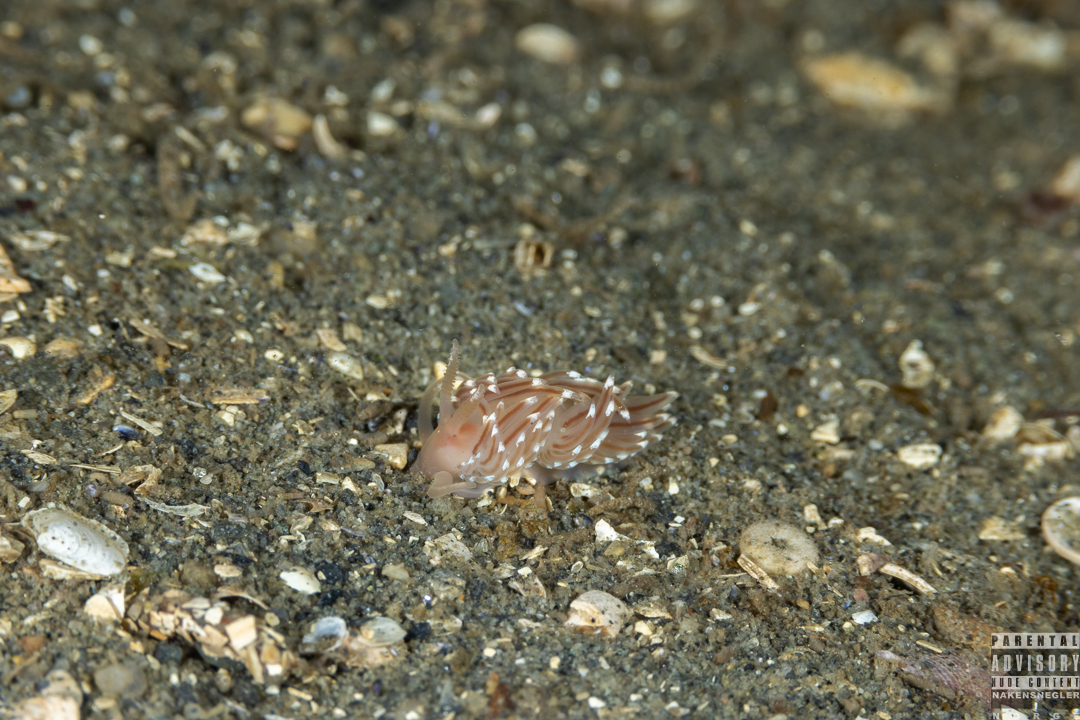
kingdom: Animalia
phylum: Mollusca
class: Gastropoda
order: Nudibranchia
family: Facelinidae
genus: Facelina
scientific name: Facelina bostoniensis
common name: Boston facelina
